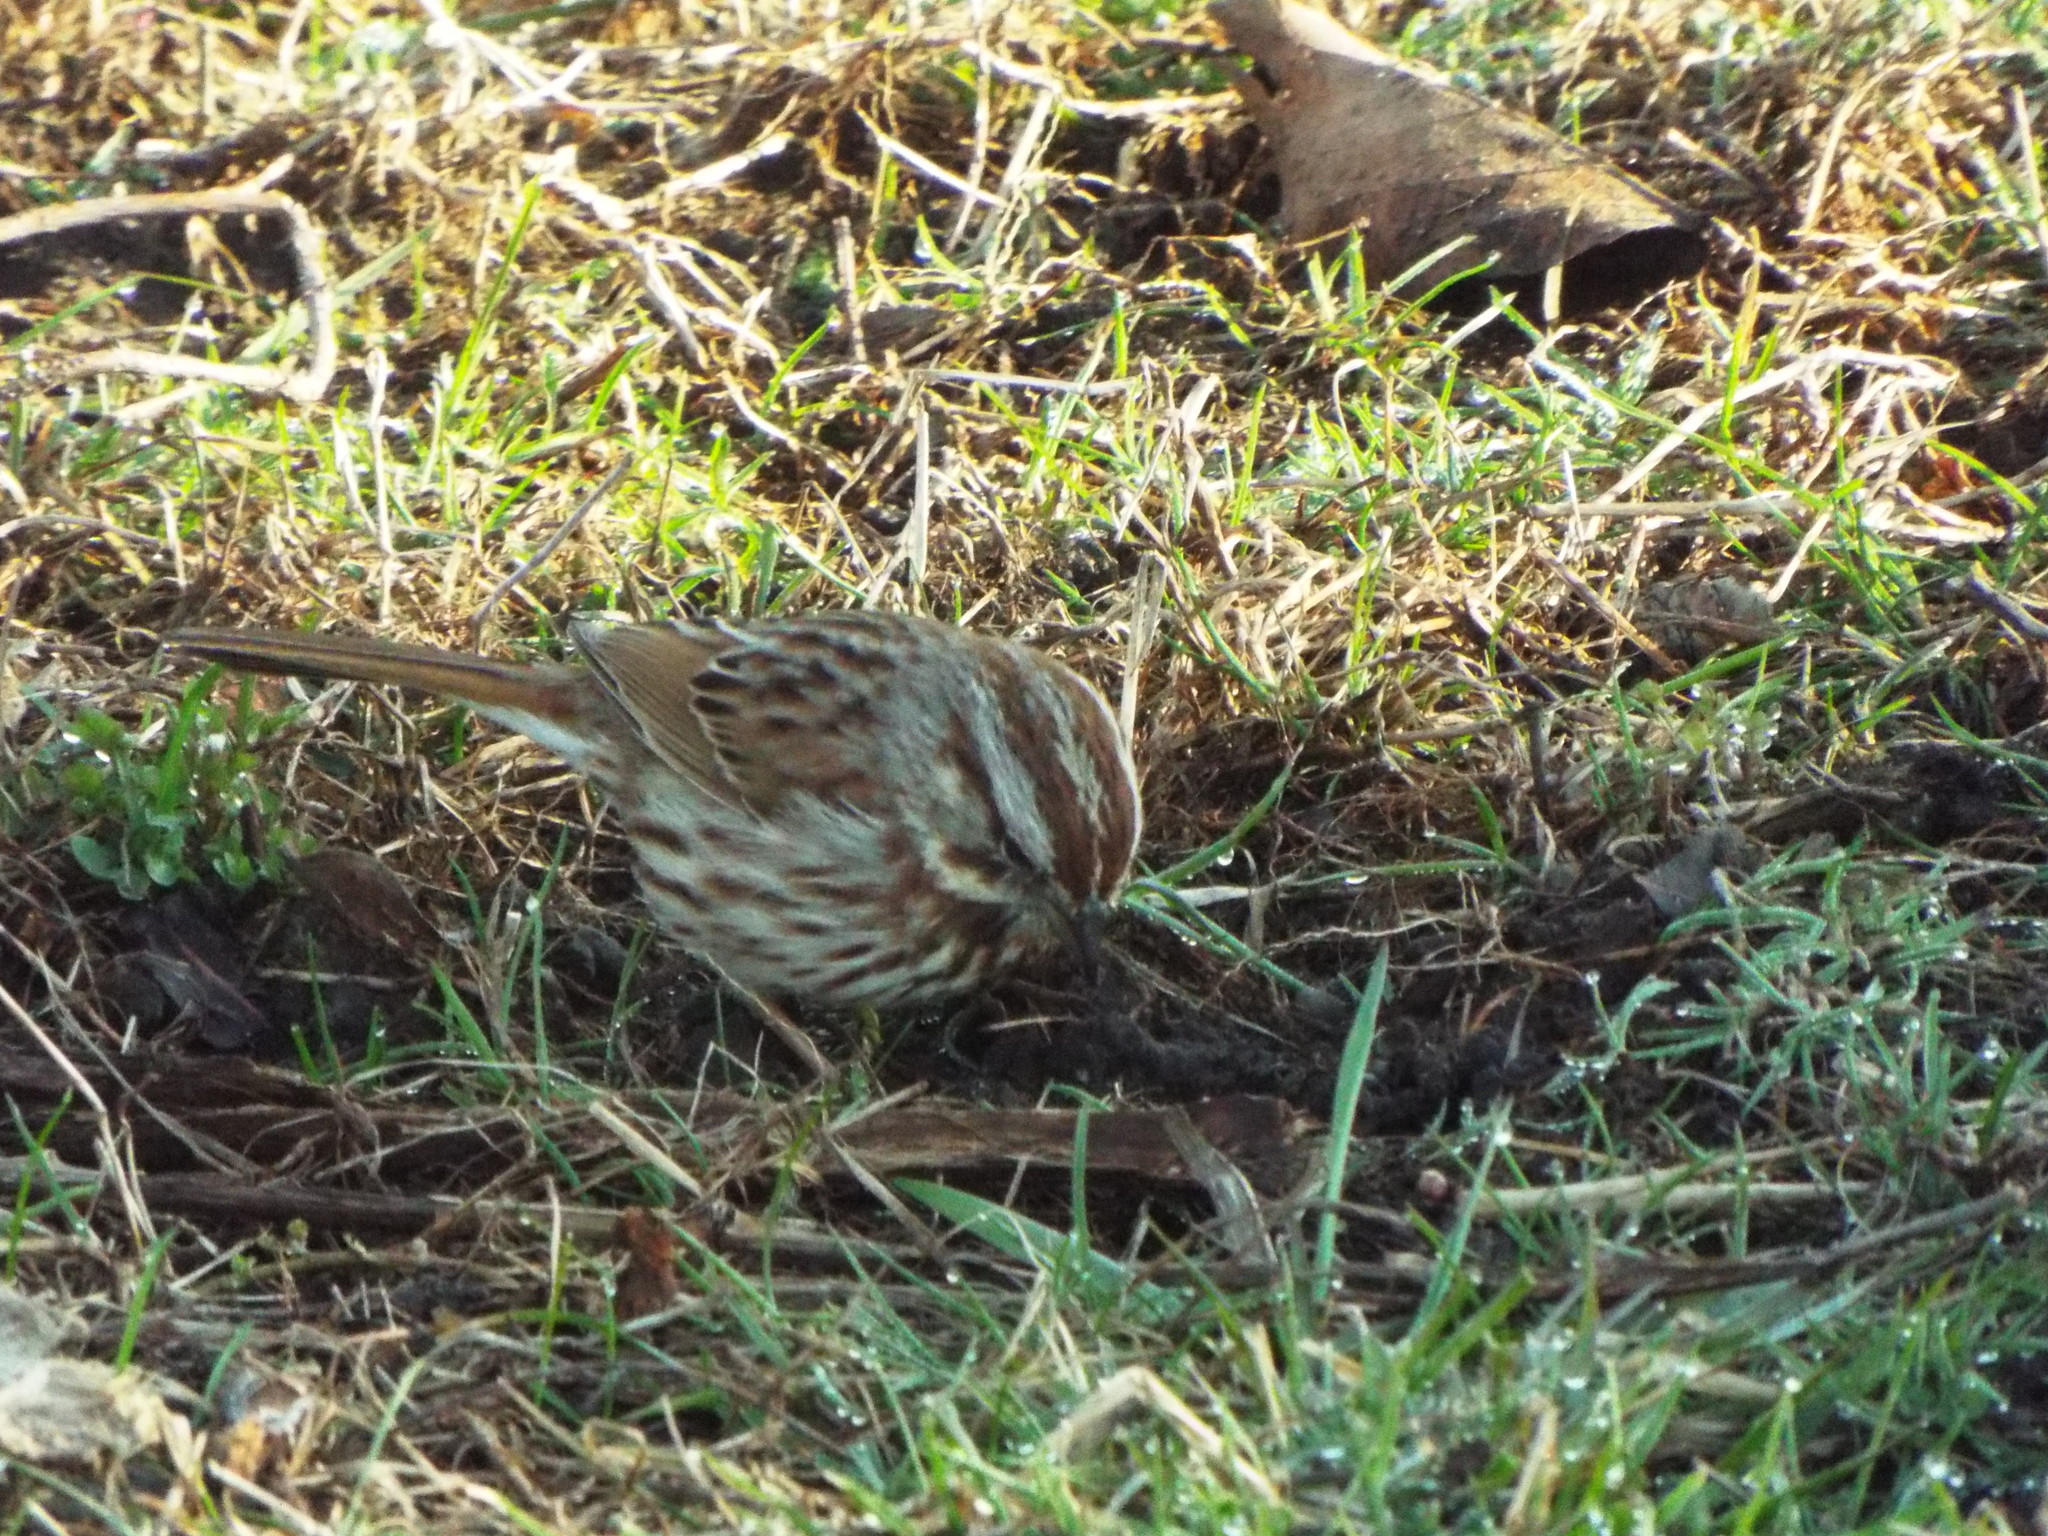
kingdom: Animalia
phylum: Chordata
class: Aves
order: Passeriformes
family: Passerellidae
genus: Melospiza
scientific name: Melospiza melodia
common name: Song sparrow
